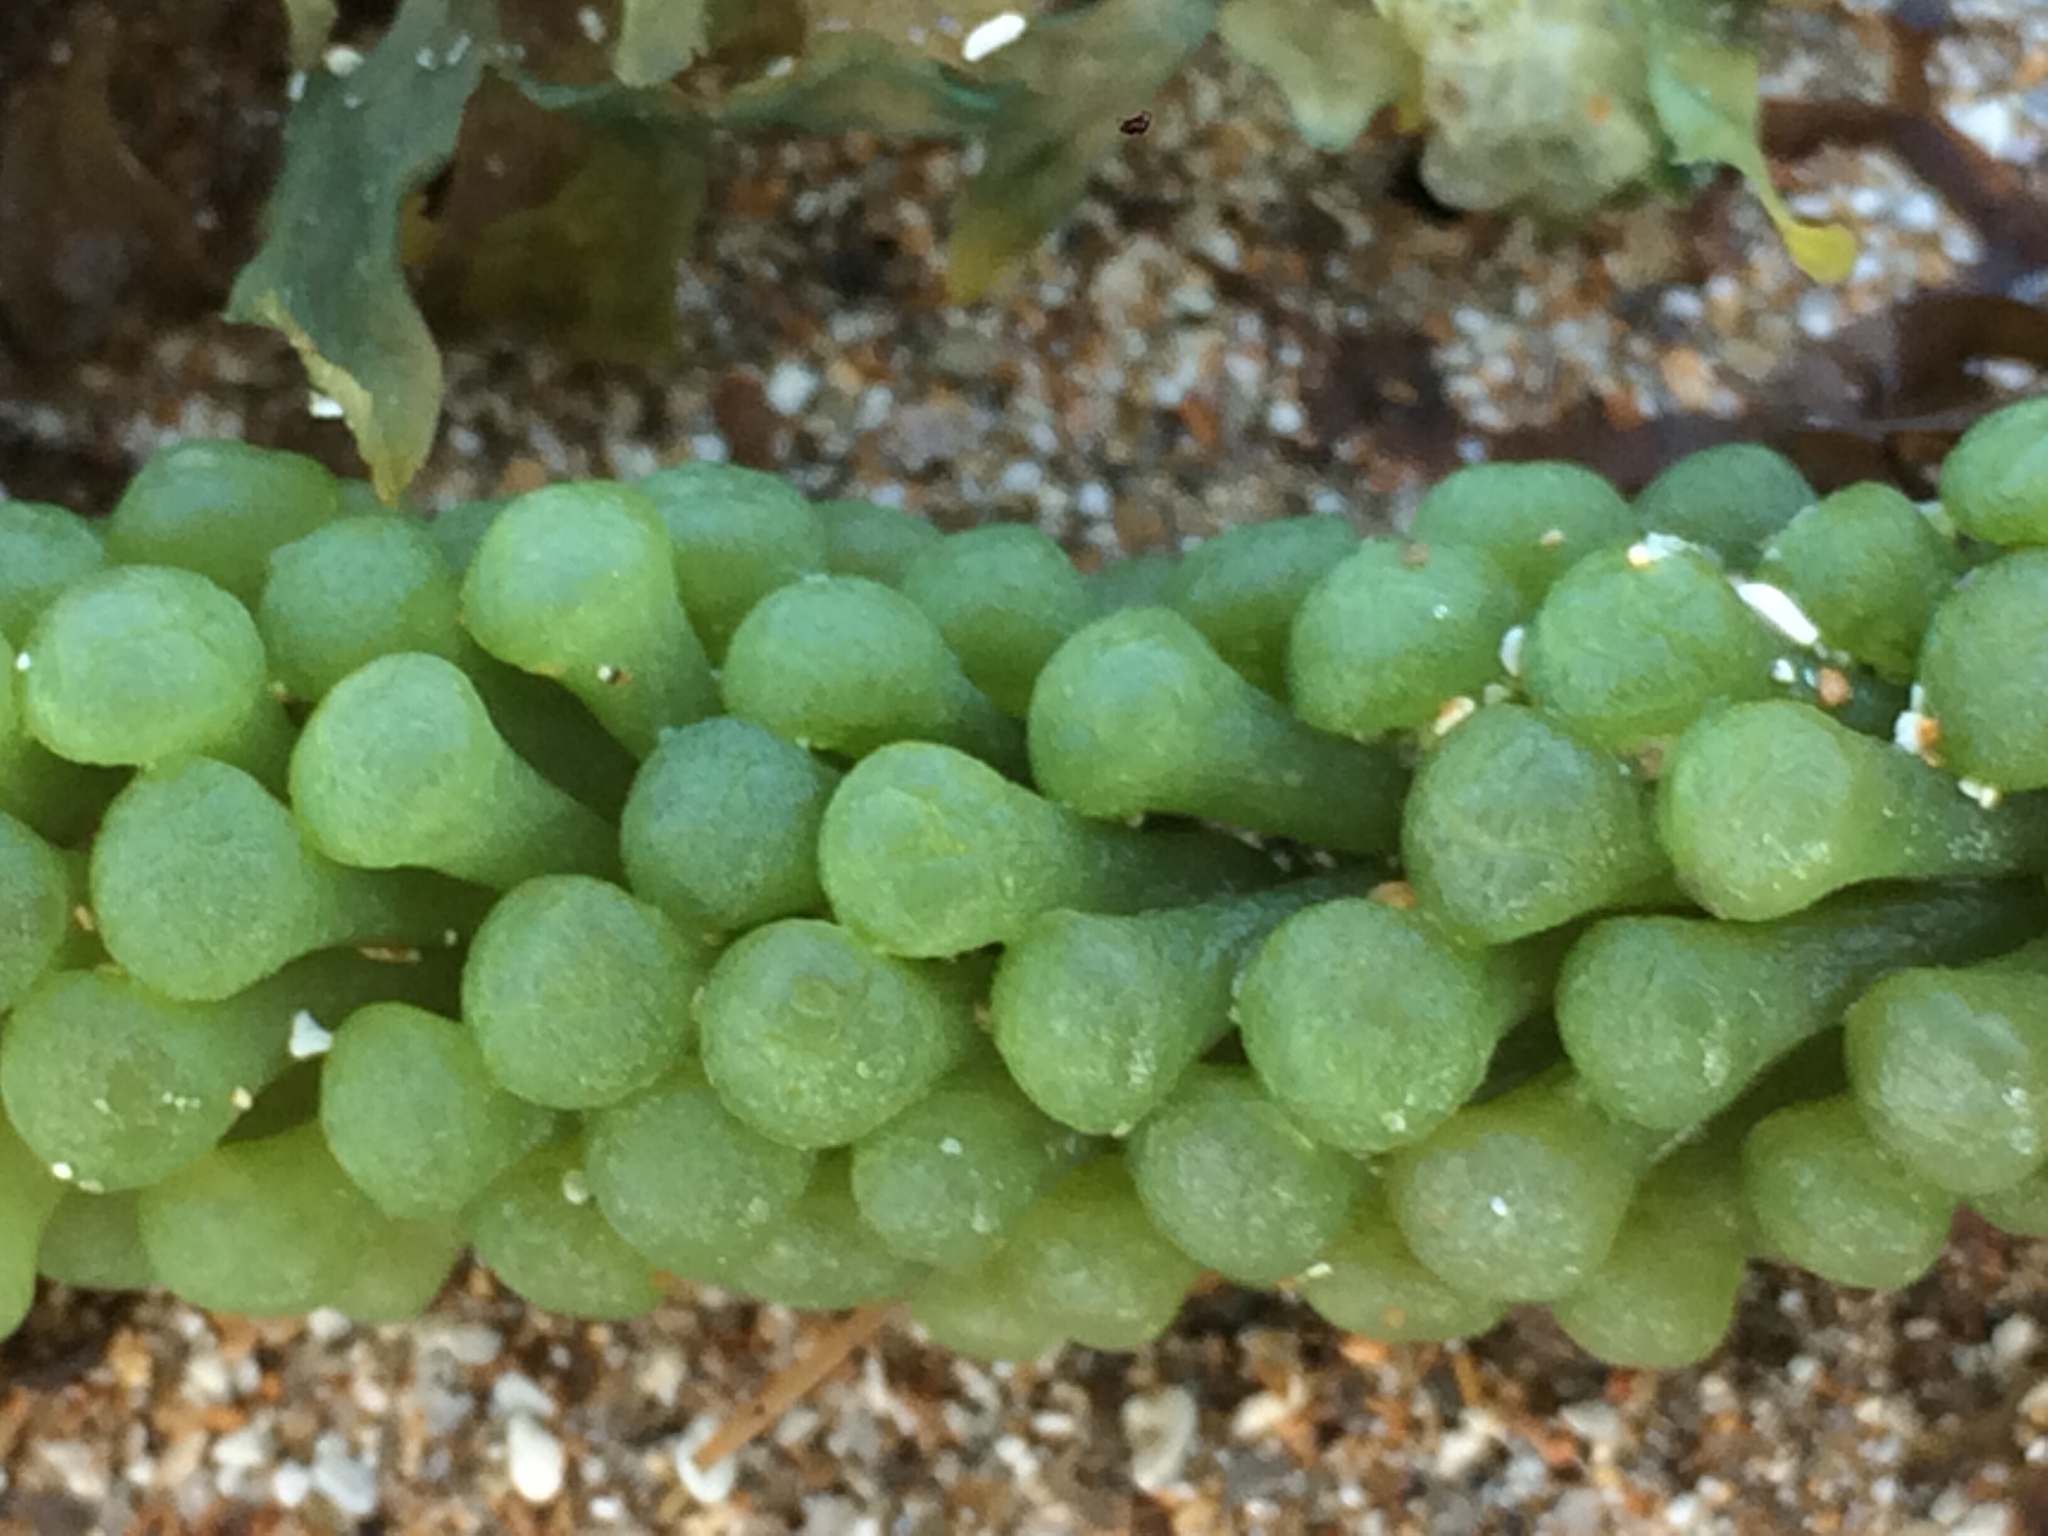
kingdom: Plantae
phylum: Chlorophyta
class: Ulvophyceae
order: Bryopsidales
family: Caulerpaceae
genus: Caulerpa
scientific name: Caulerpa racemosa
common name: Green grape algae
